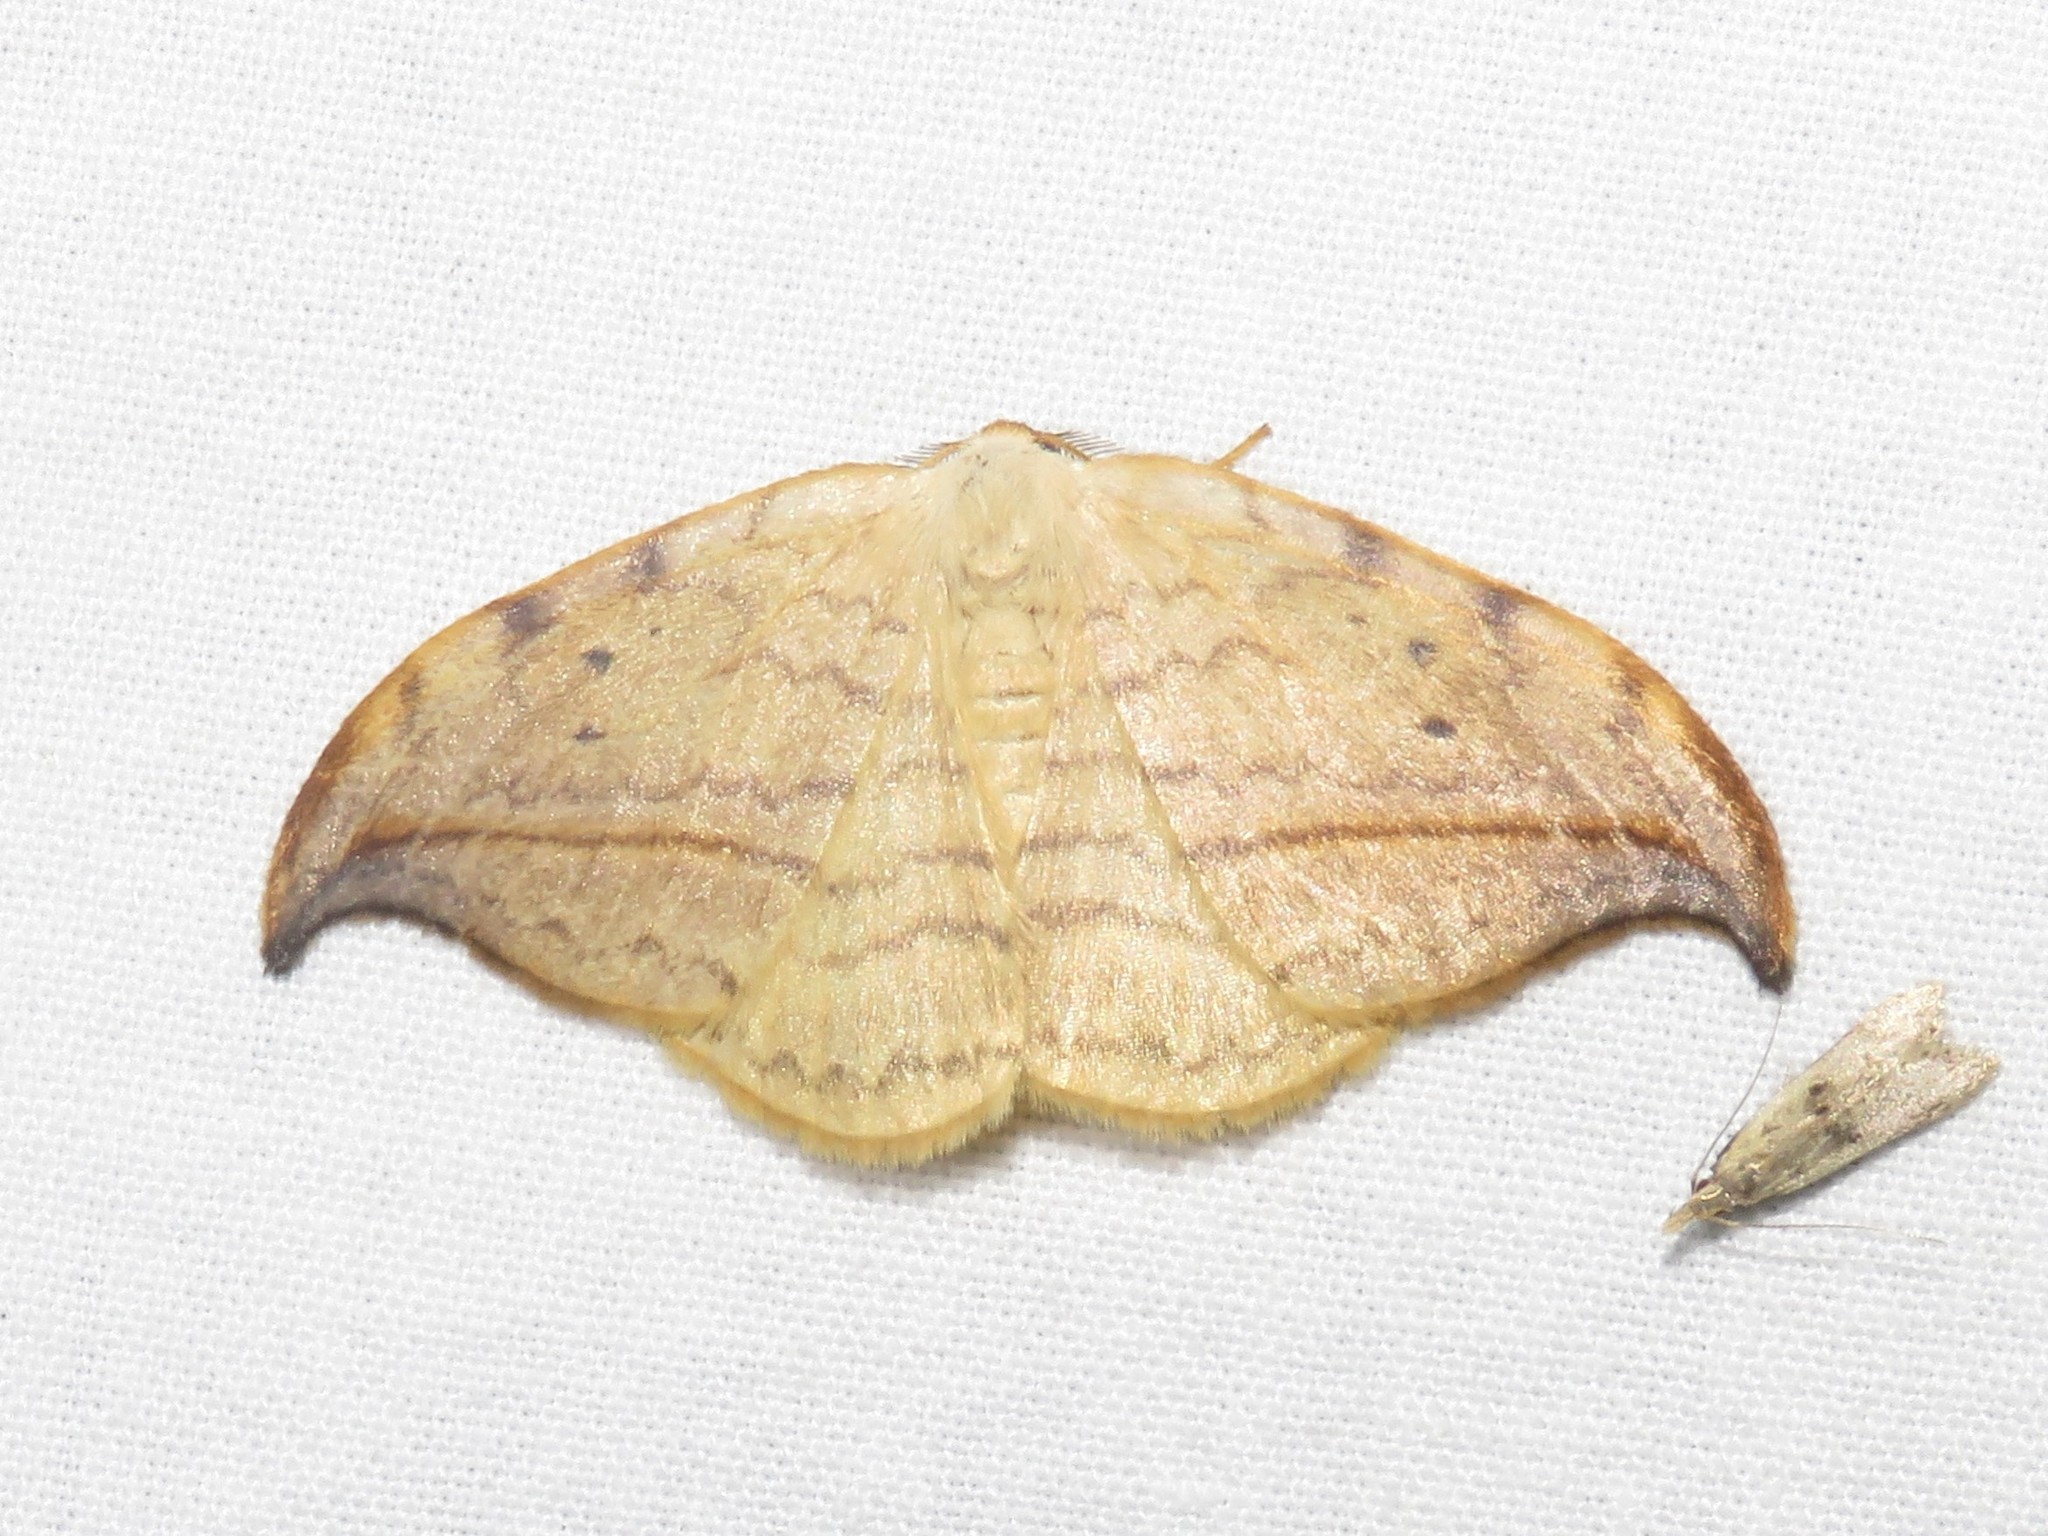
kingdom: Animalia
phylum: Arthropoda
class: Insecta
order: Lepidoptera
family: Drepanidae
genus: Drepana
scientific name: Drepana arcuata
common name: Arched hooktip moth
